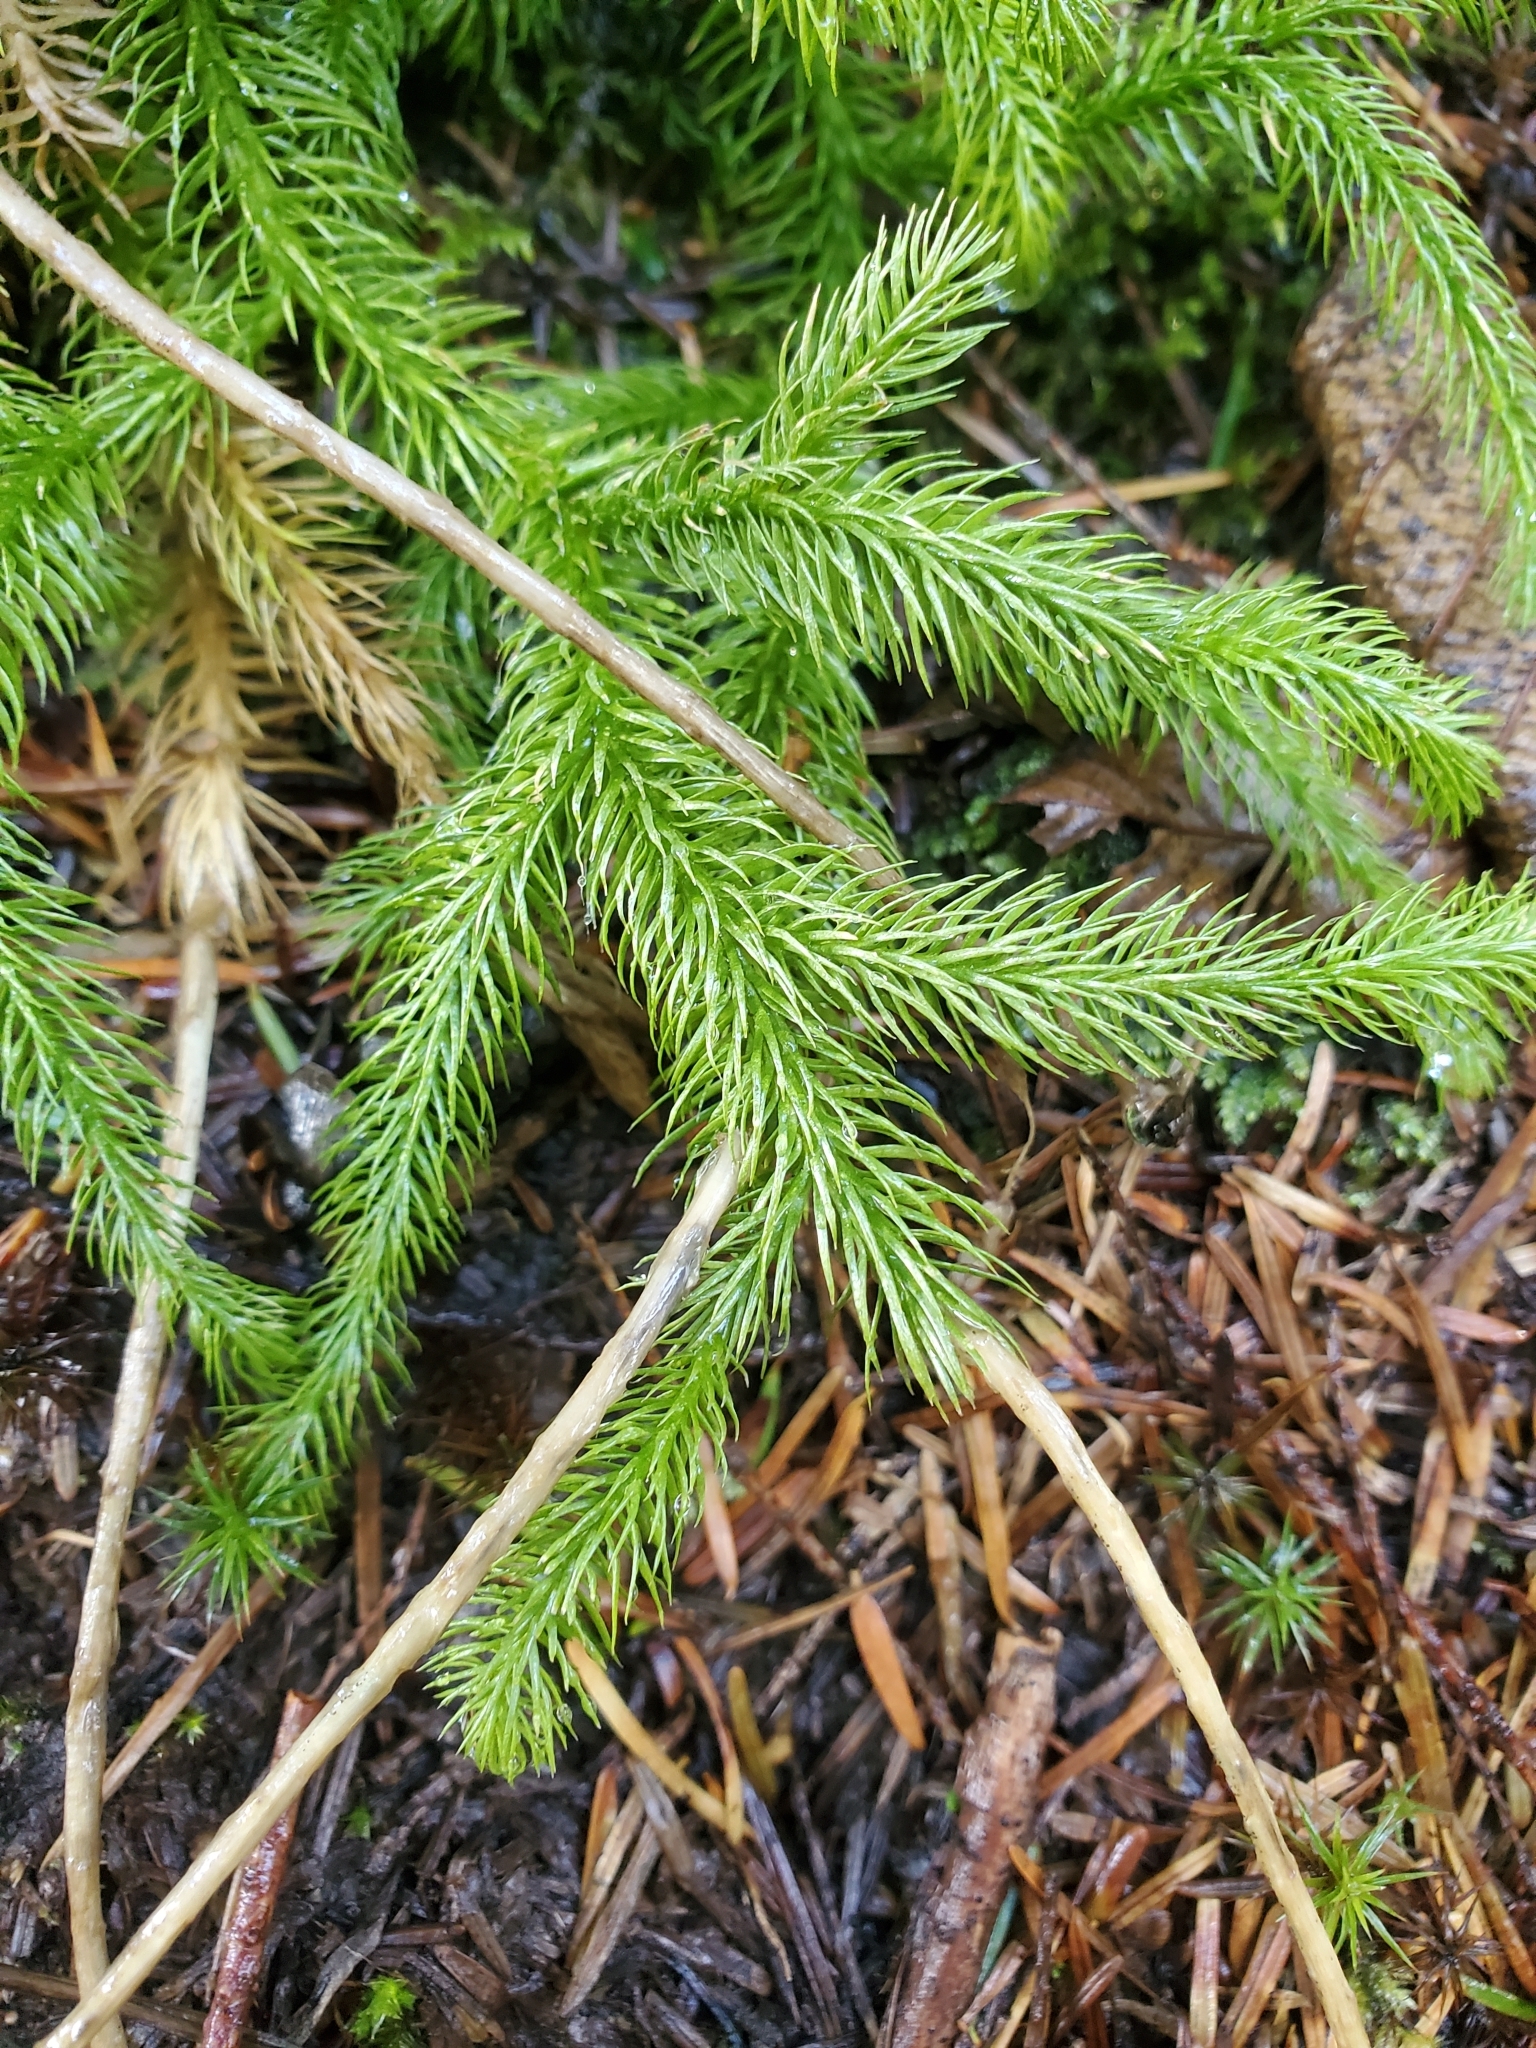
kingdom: Plantae
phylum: Tracheophyta
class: Lycopodiopsida
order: Lycopodiales
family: Lycopodiaceae
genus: Lycopodium
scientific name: Lycopodium clavatum
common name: Stag's-horn clubmoss
